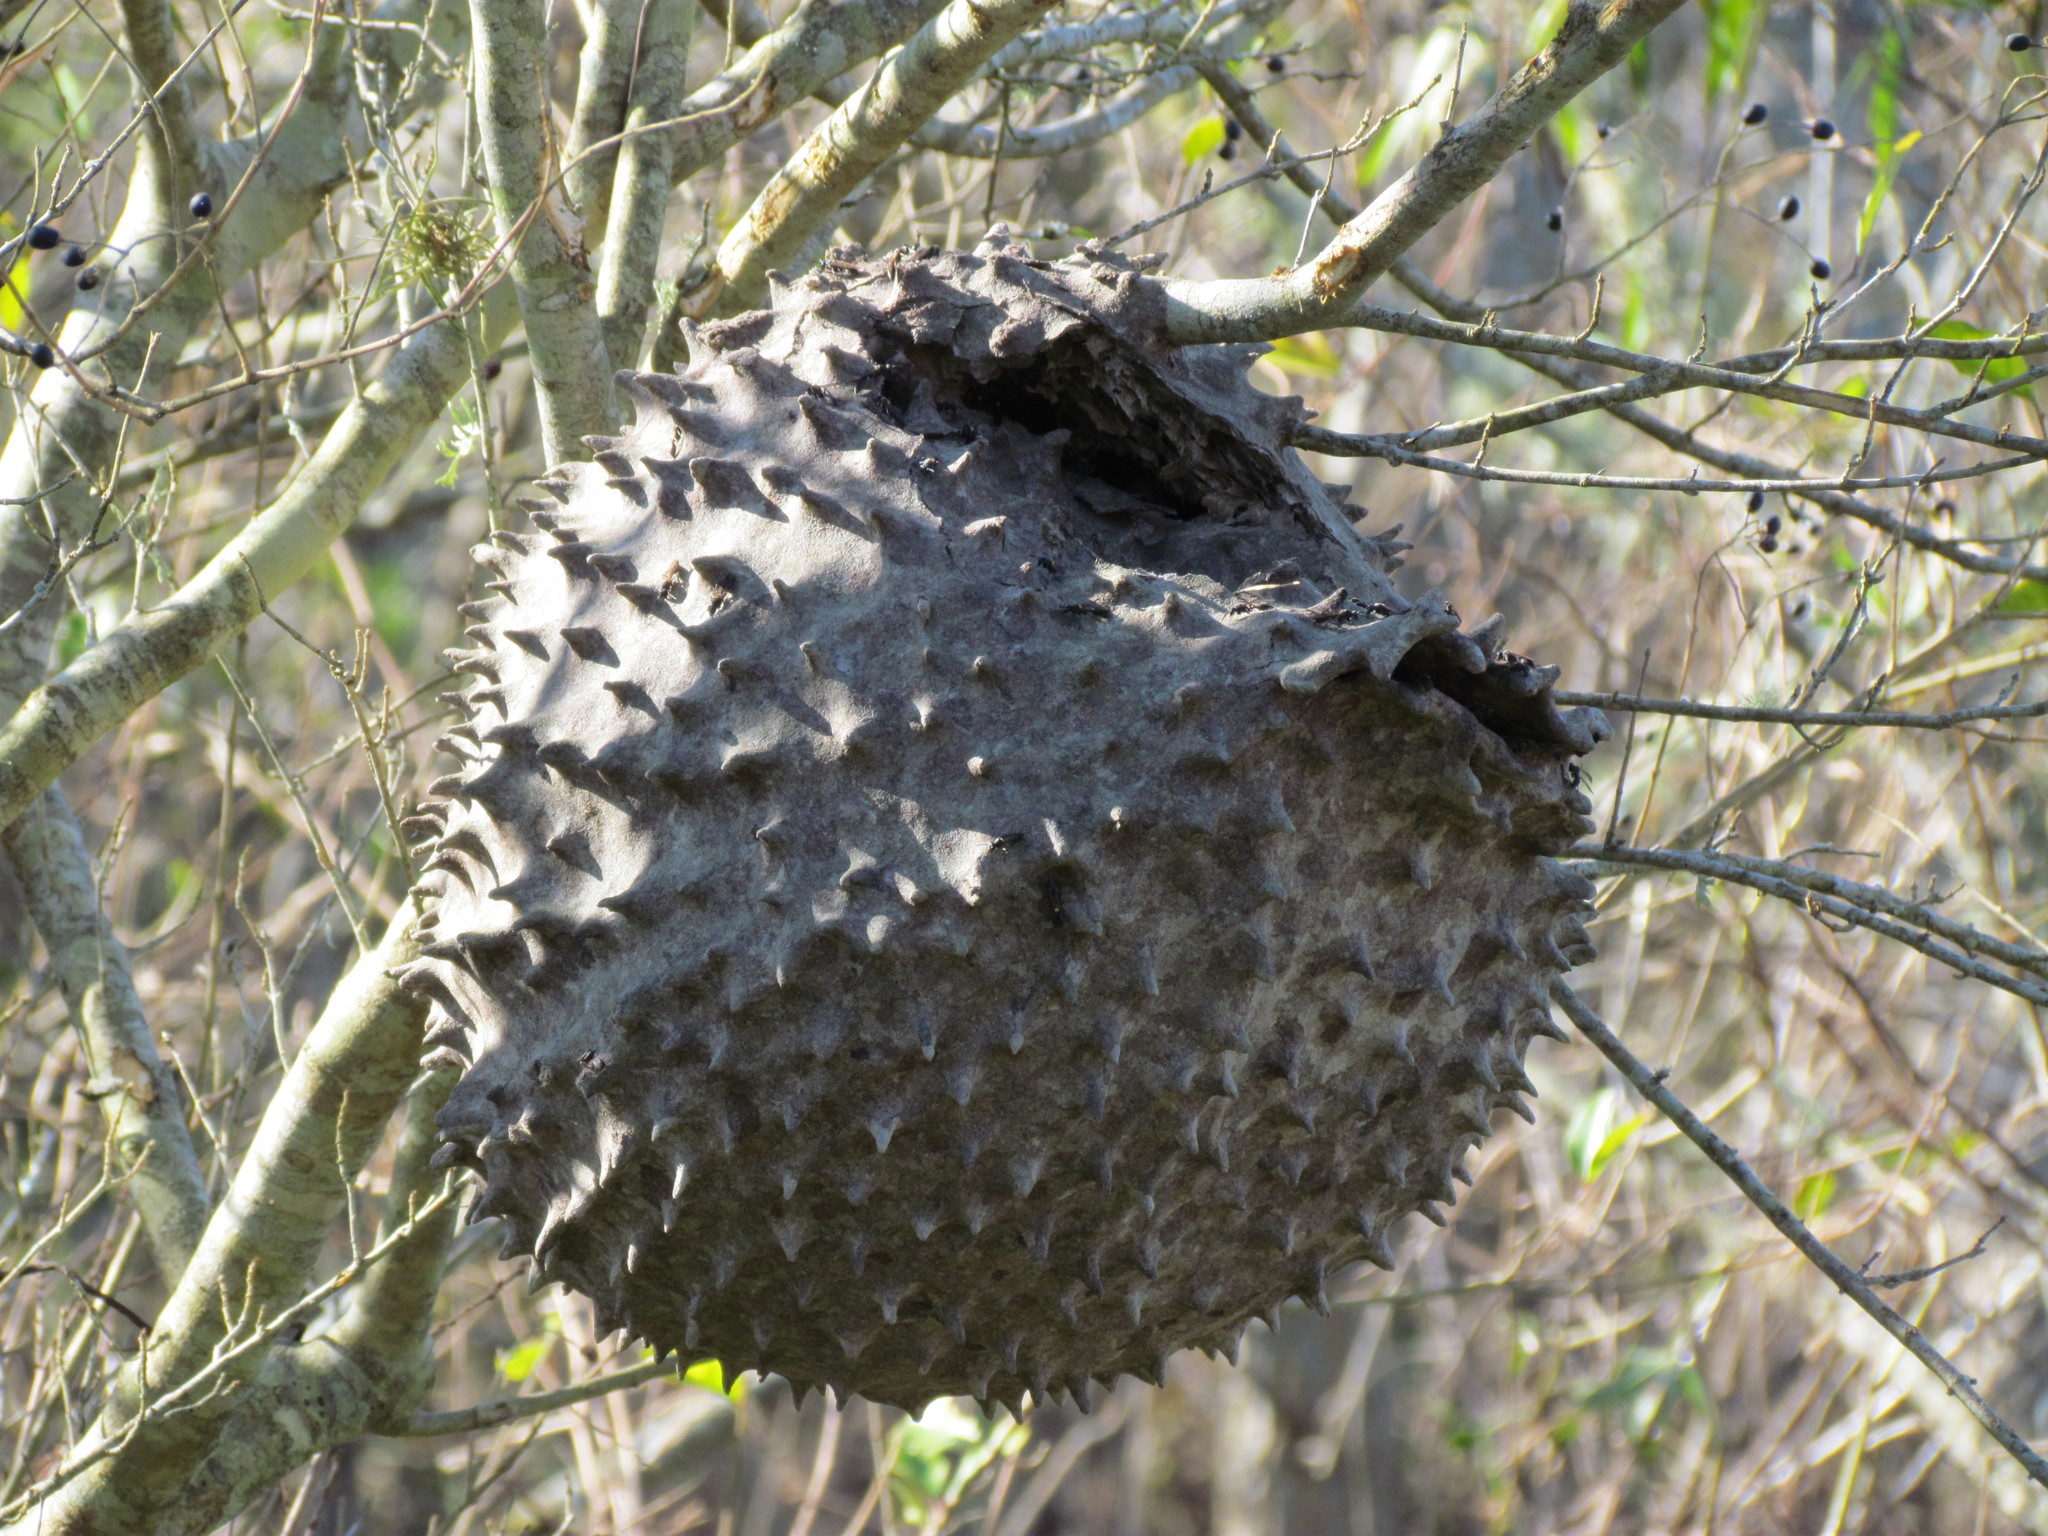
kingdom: Animalia
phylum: Arthropoda
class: Insecta
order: Hymenoptera
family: Eumenidae
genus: Polybia
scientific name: Polybia scutellaris
